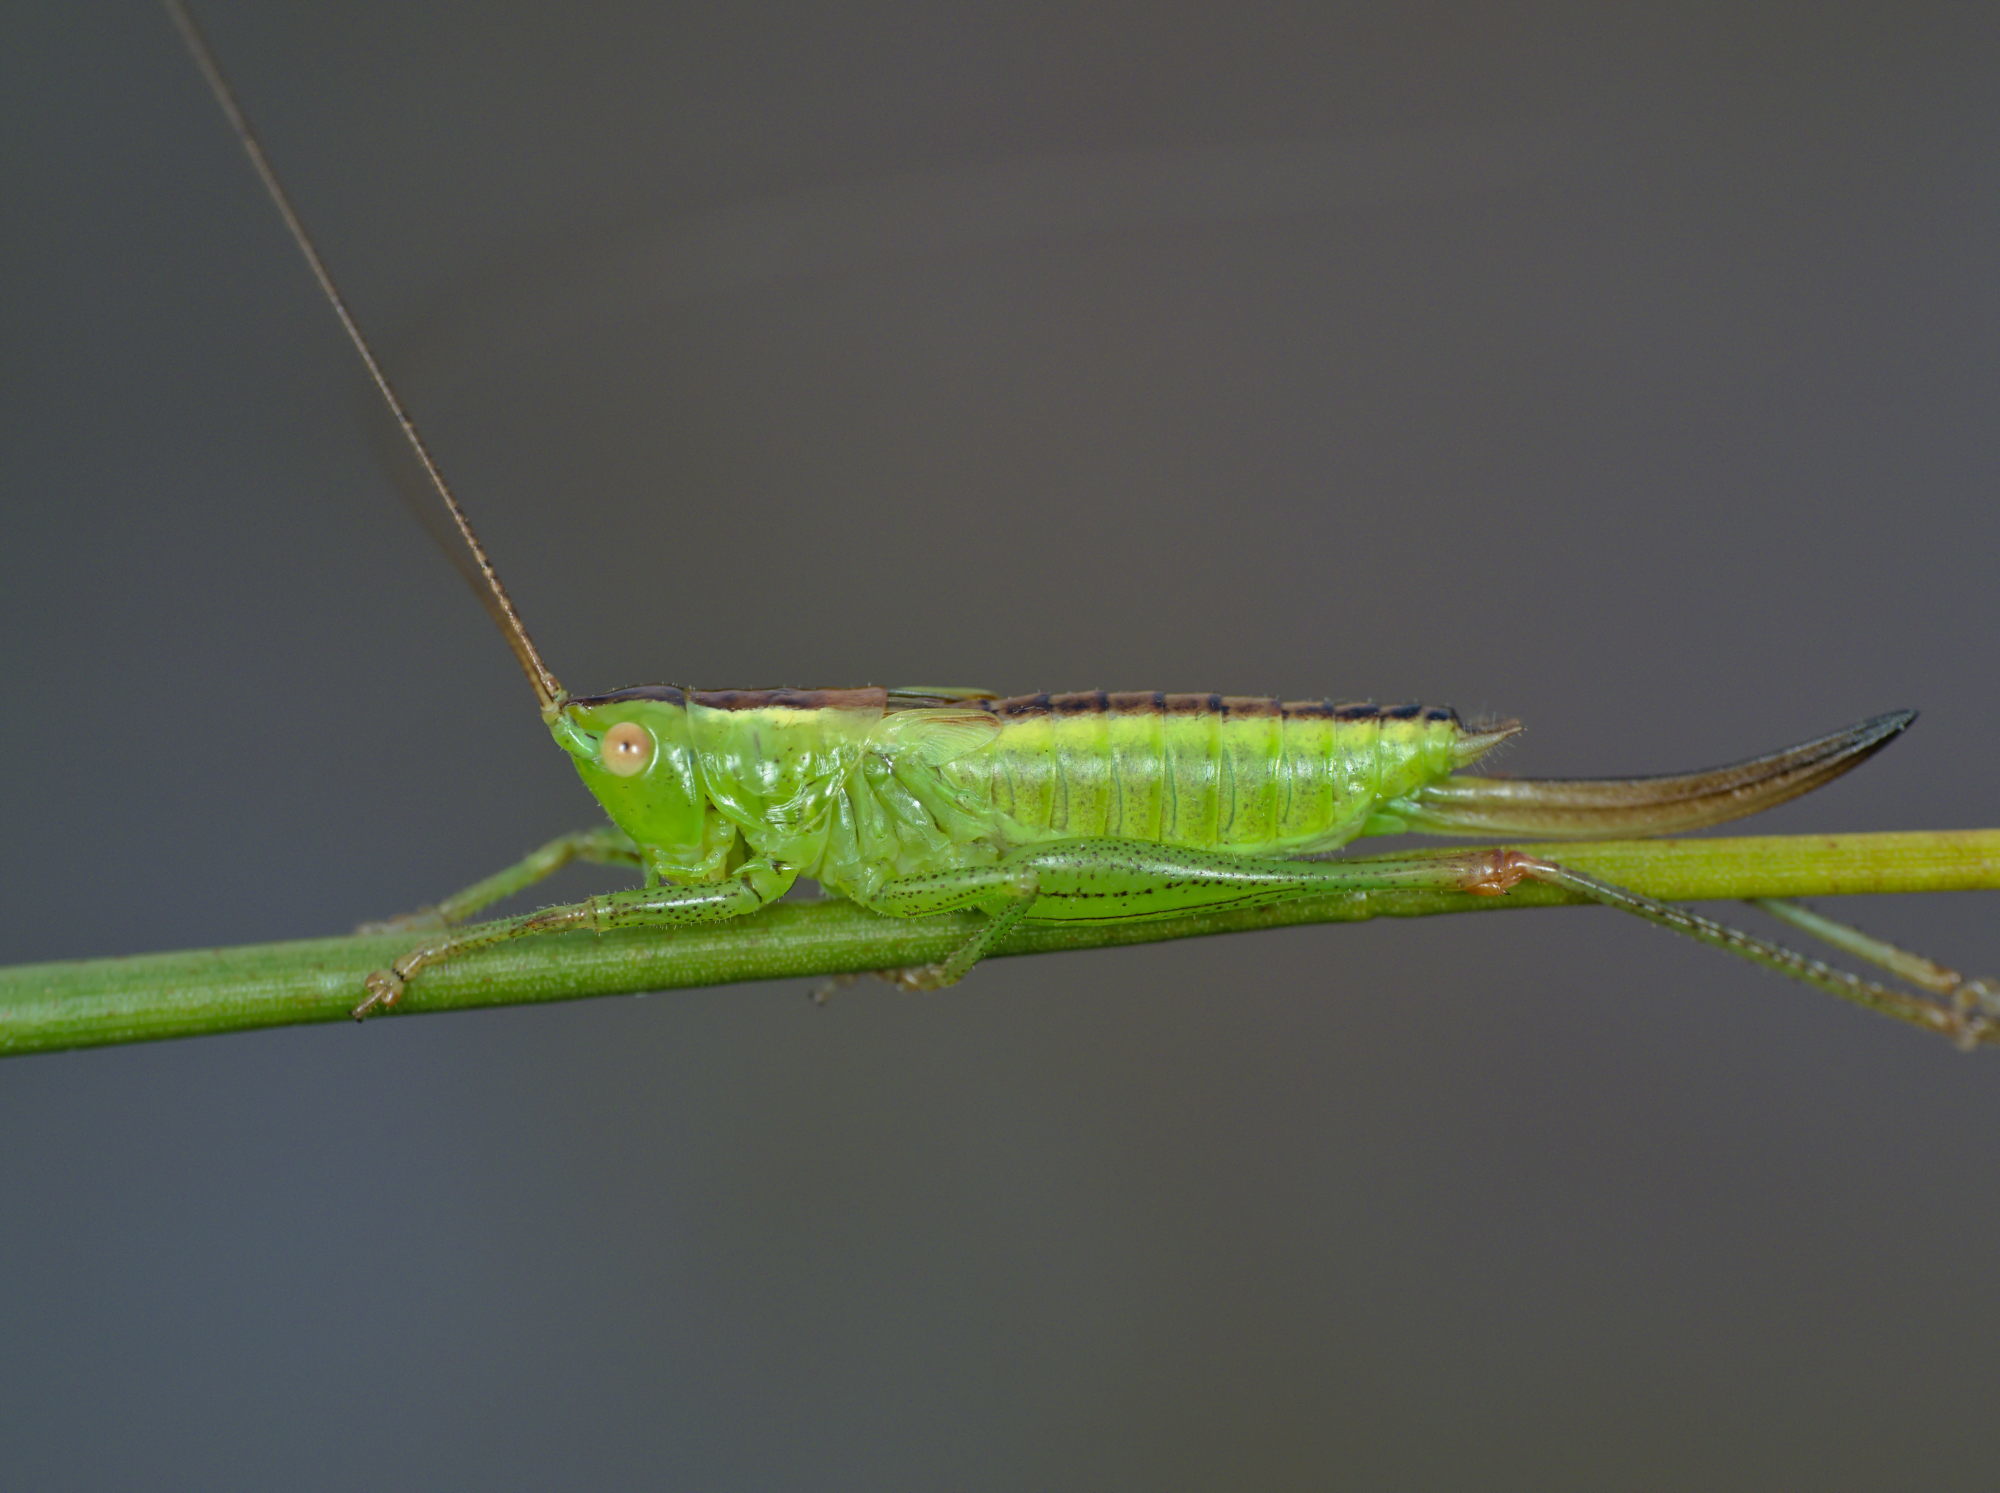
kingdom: Animalia
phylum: Arthropoda
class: Insecta
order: Orthoptera
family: Tettigoniidae
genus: Conocephalus
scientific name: Conocephalus dorsalis
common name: Short-winged conehead
